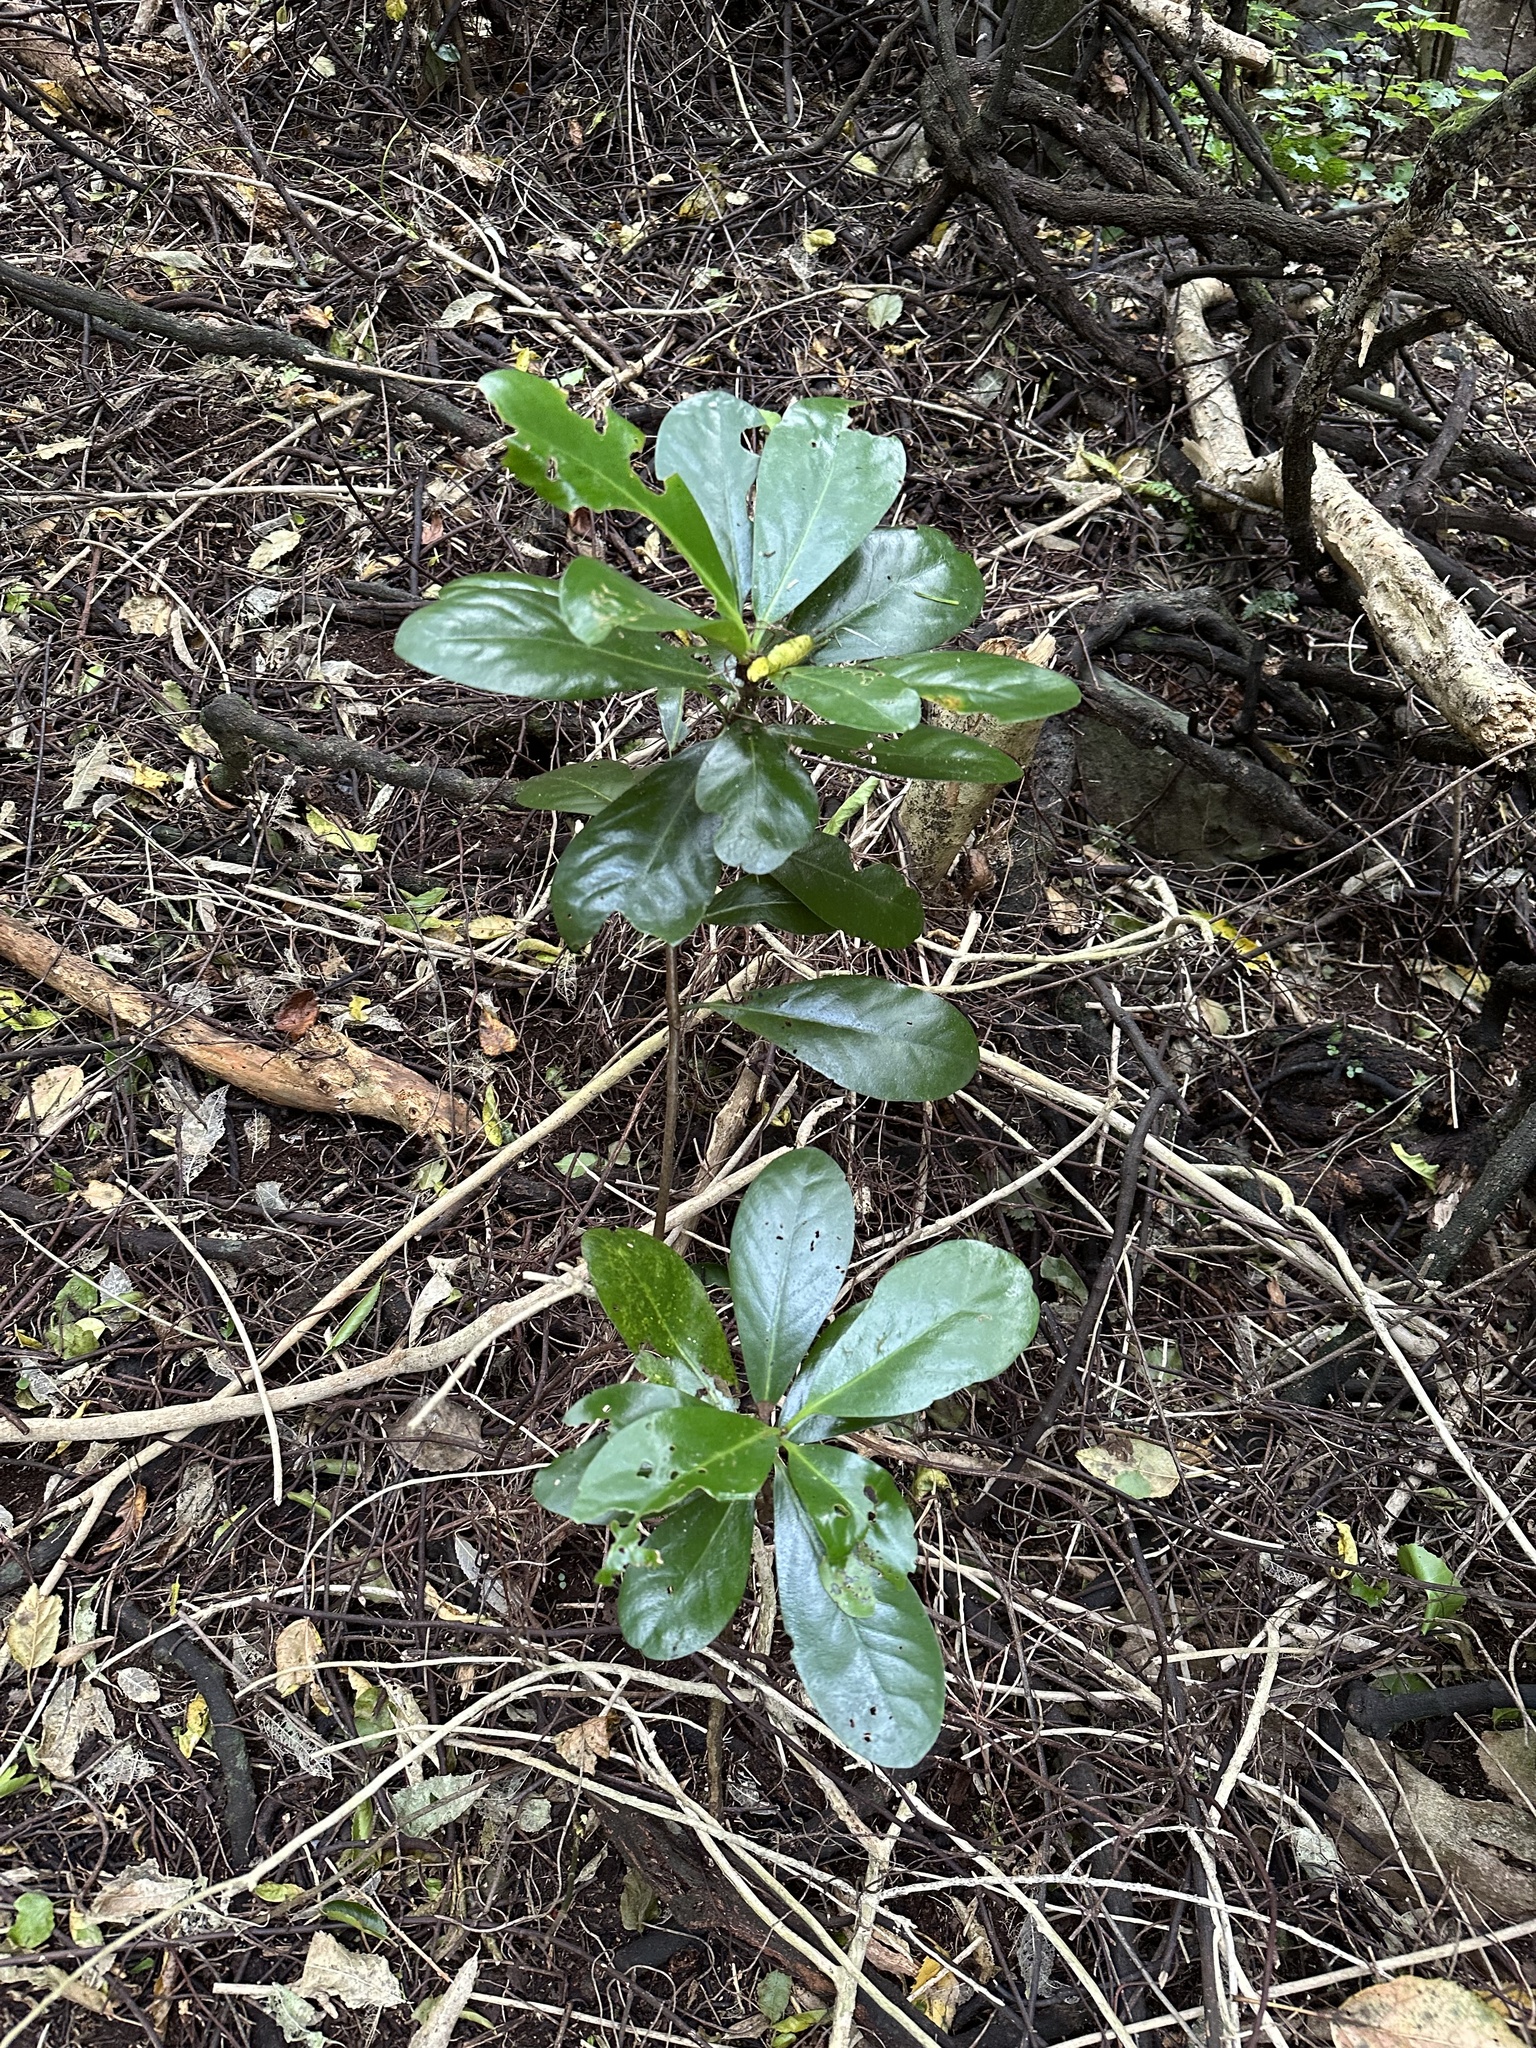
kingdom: Plantae
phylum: Tracheophyta
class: Magnoliopsida
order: Cucurbitales
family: Corynocarpaceae
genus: Corynocarpus
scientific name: Corynocarpus laevigatus
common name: New zealand laurel
